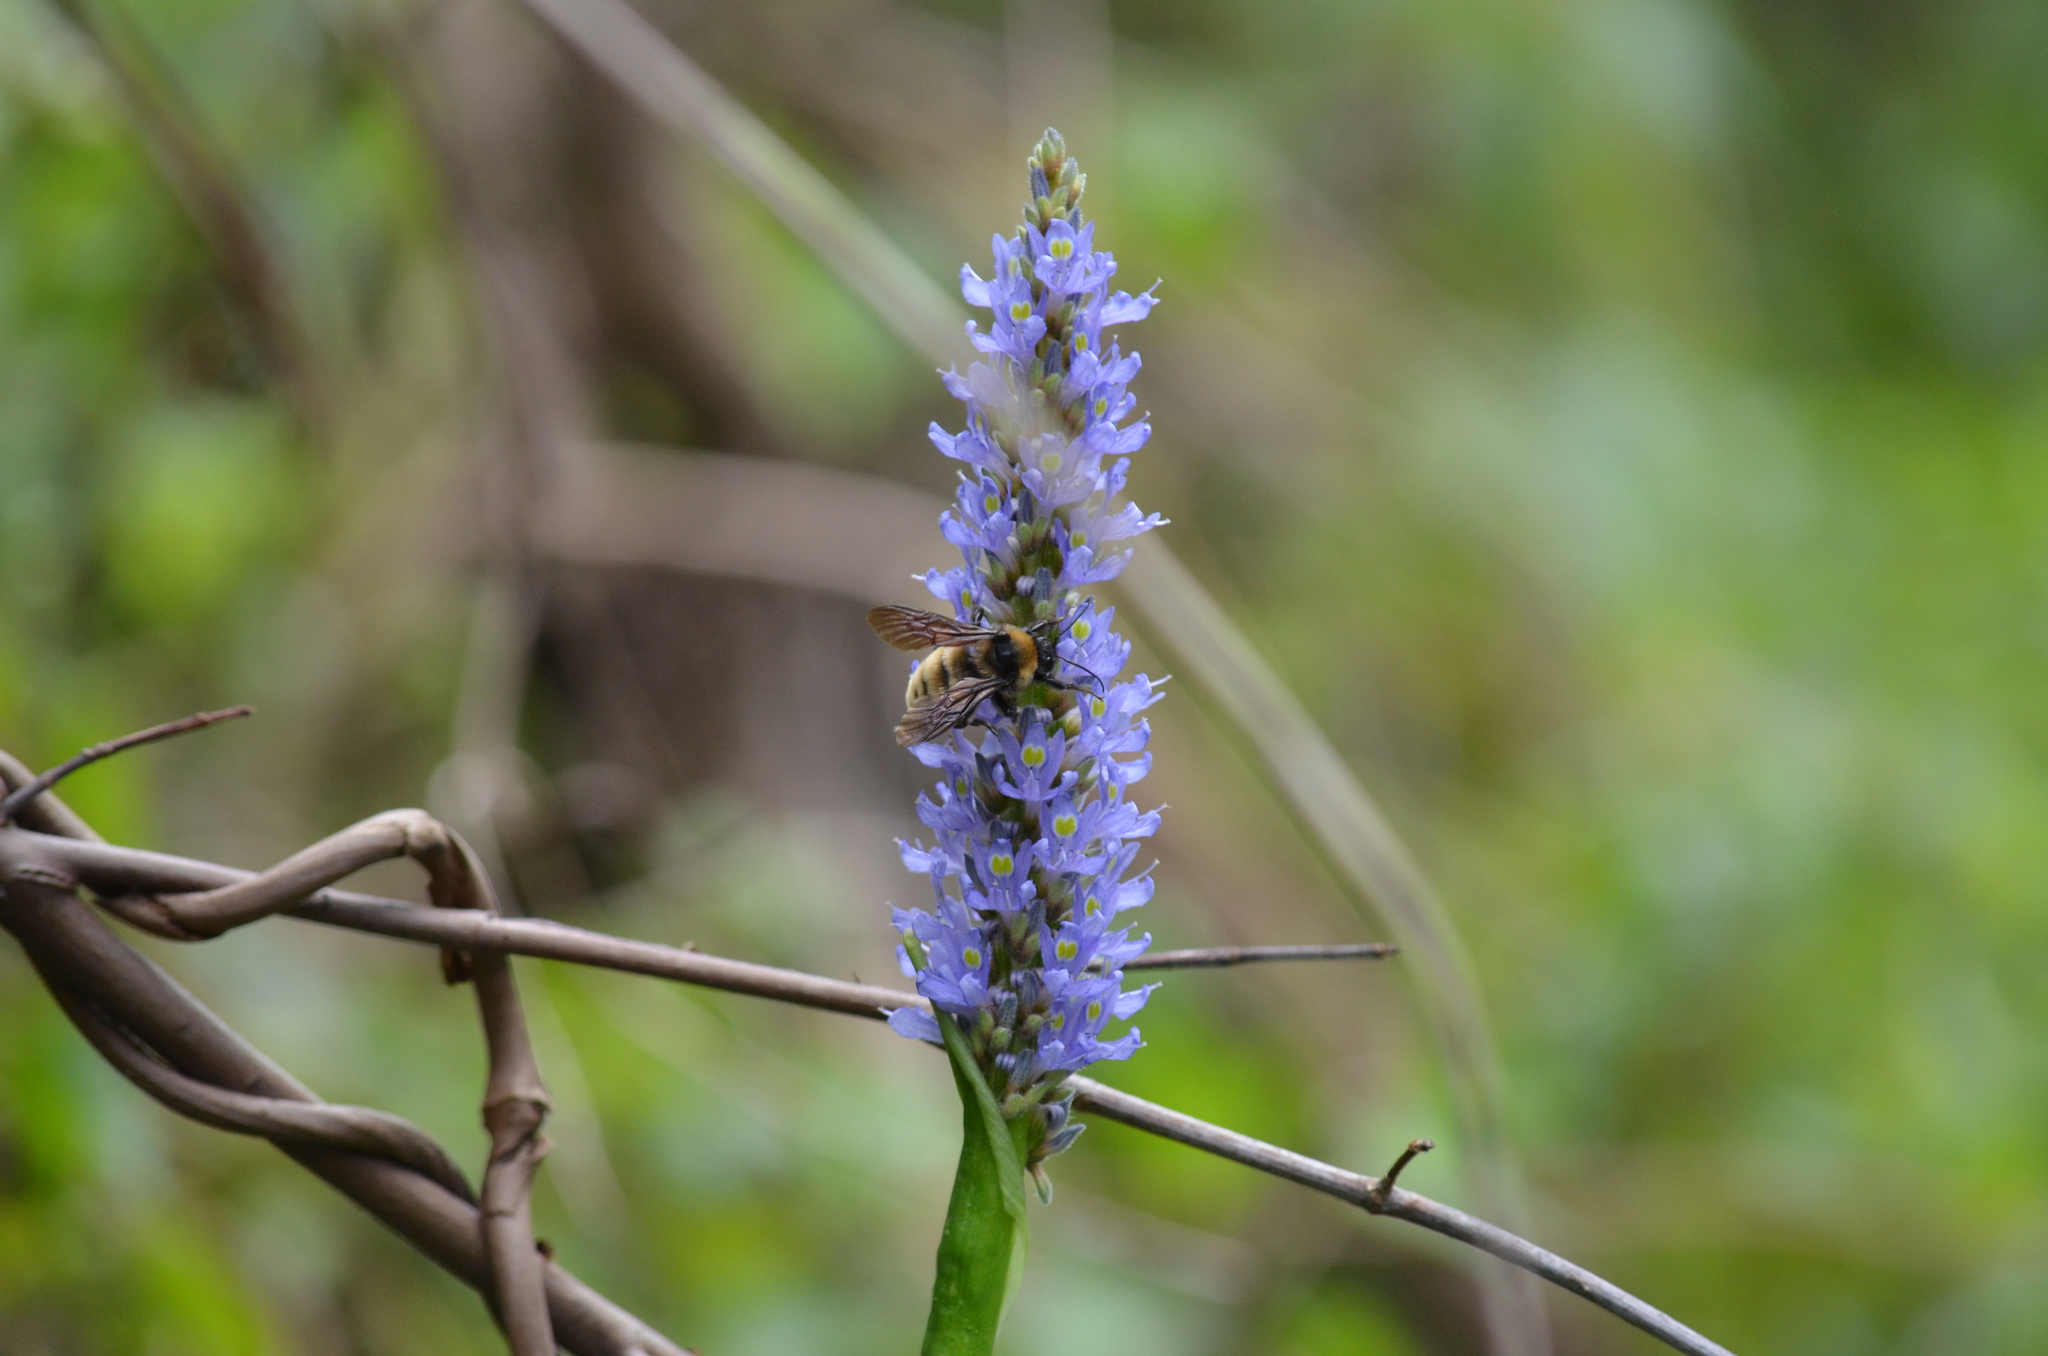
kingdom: Animalia
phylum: Arthropoda
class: Insecta
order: Hymenoptera
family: Apidae
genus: Bombus
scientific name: Bombus pensylvanicus
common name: Bumble bee
